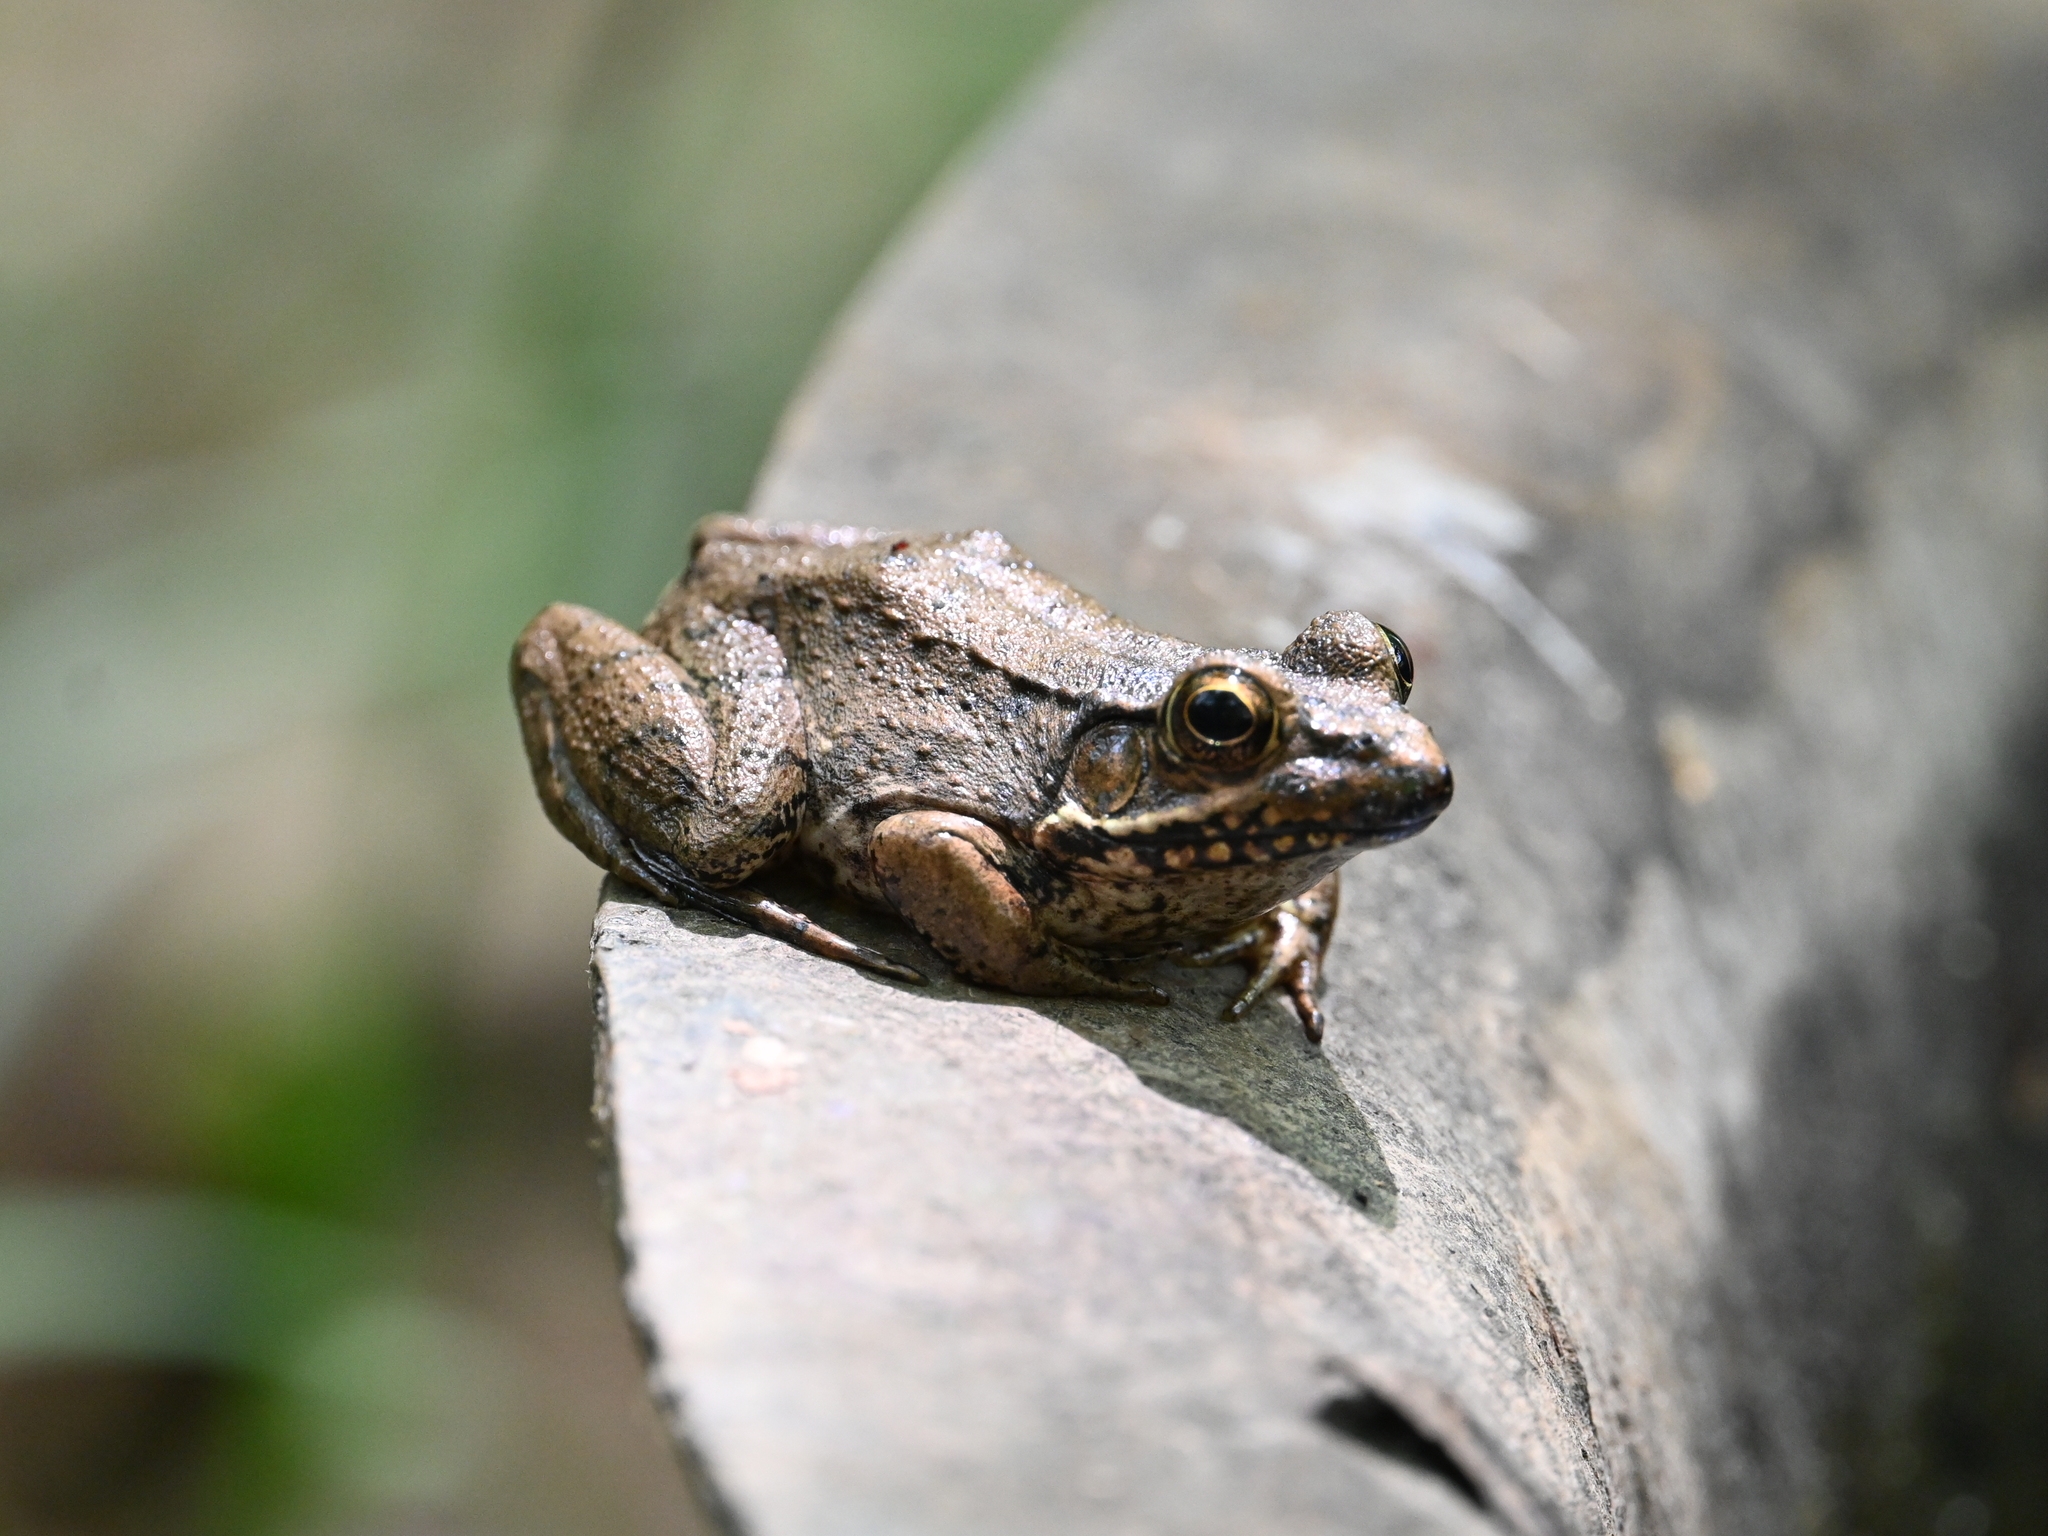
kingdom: Animalia
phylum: Chordata
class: Amphibia
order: Anura
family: Ranidae
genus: Lithobates
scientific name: Lithobates clamitans
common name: Green frog
